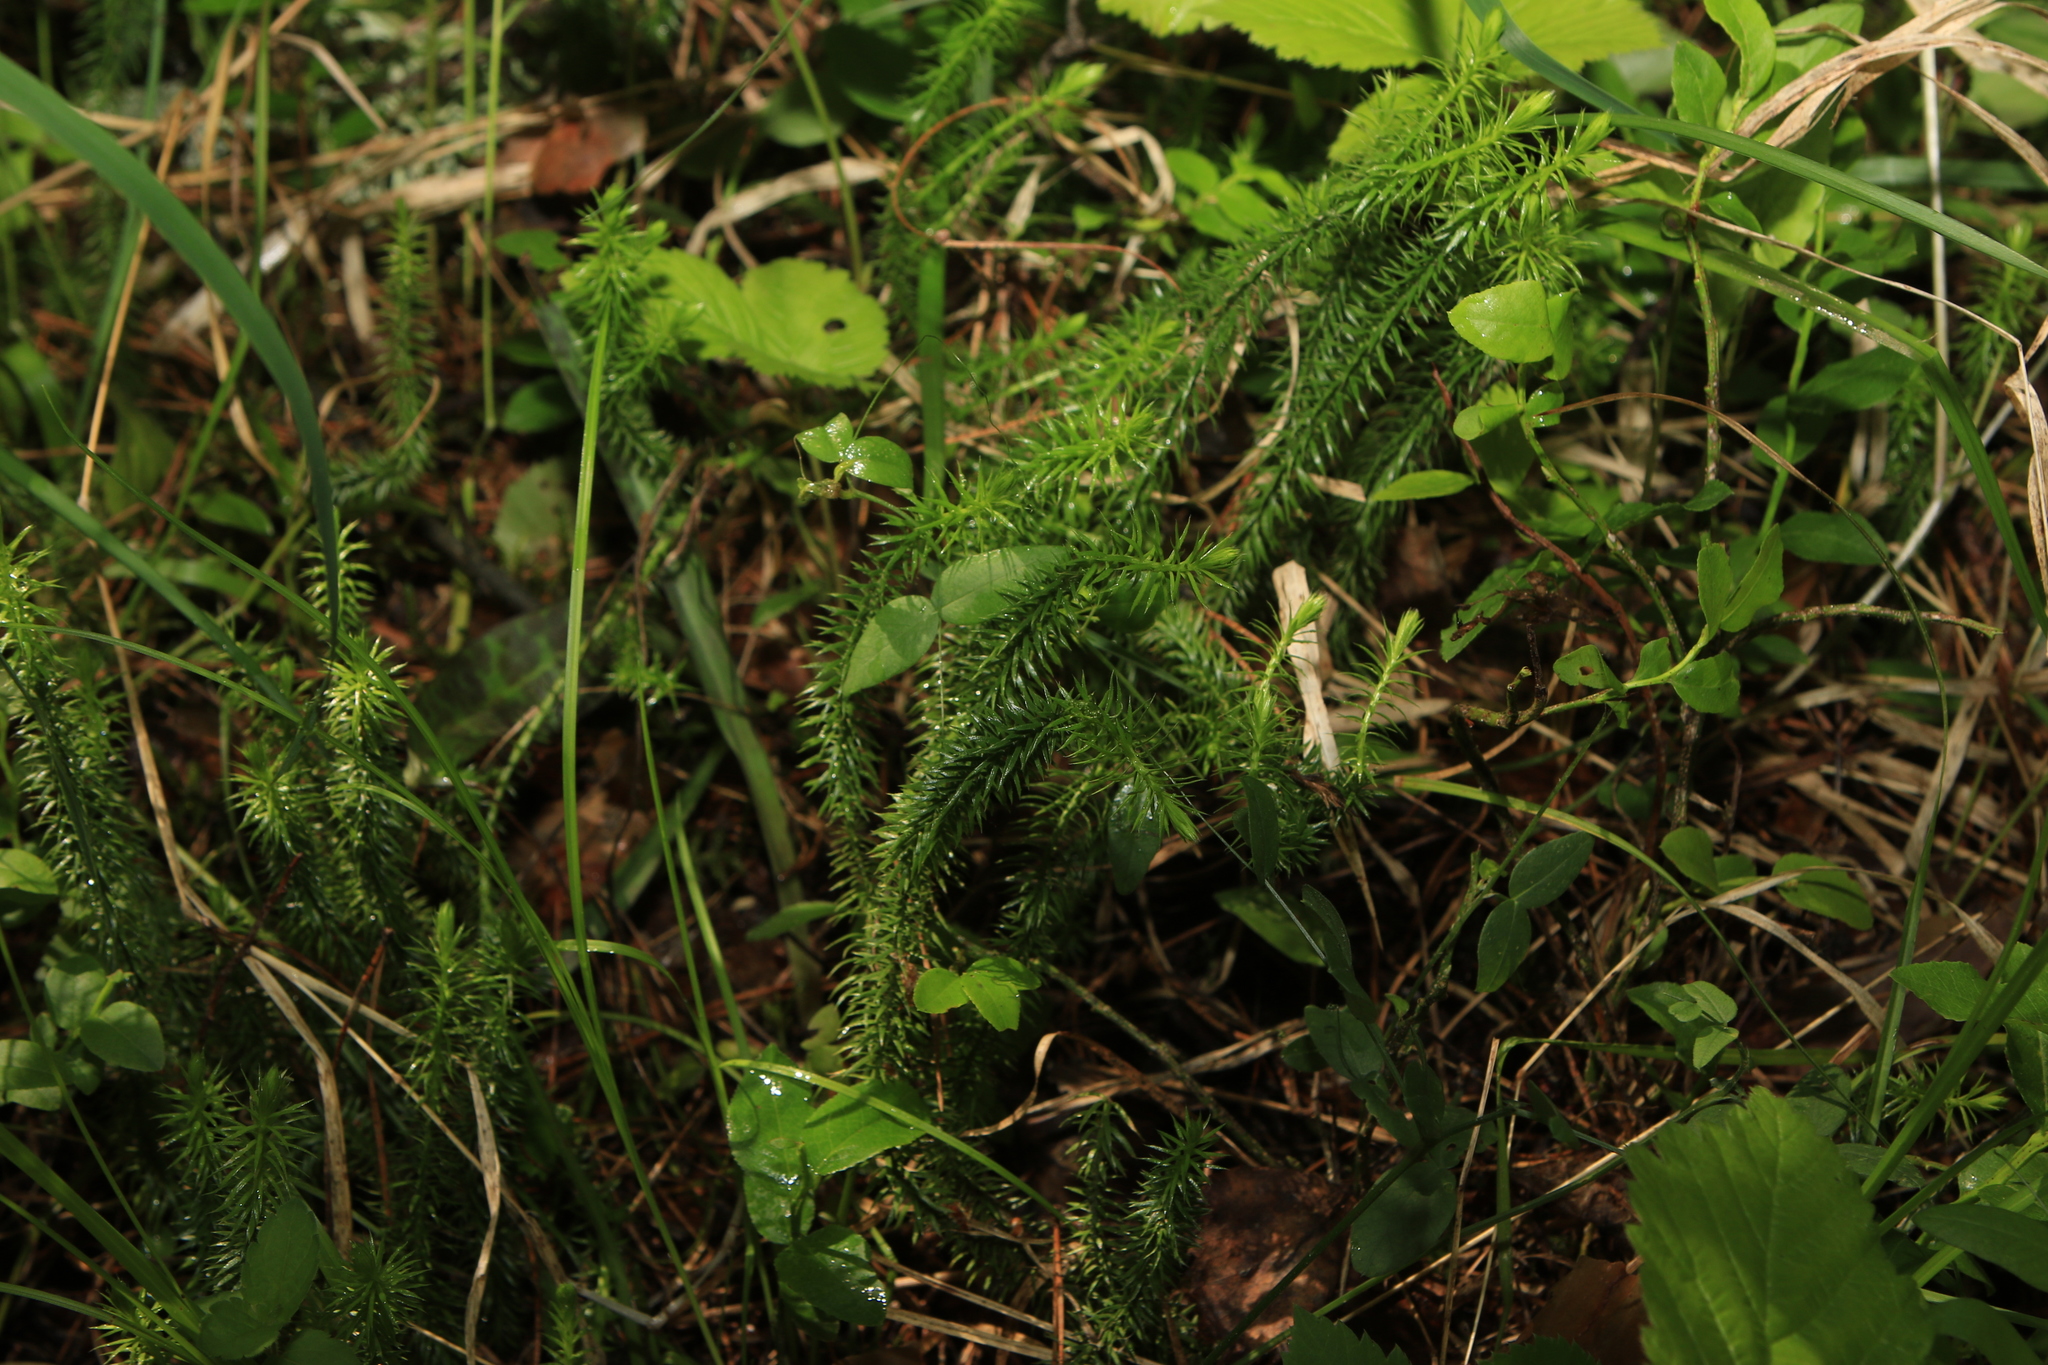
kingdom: Plantae
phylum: Tracheophyta
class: Lycopodiopsida
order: Lycopodiales
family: Lycopodiaceae
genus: Spinulum
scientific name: Spinulum annotinum
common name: Interrupted club-moss
